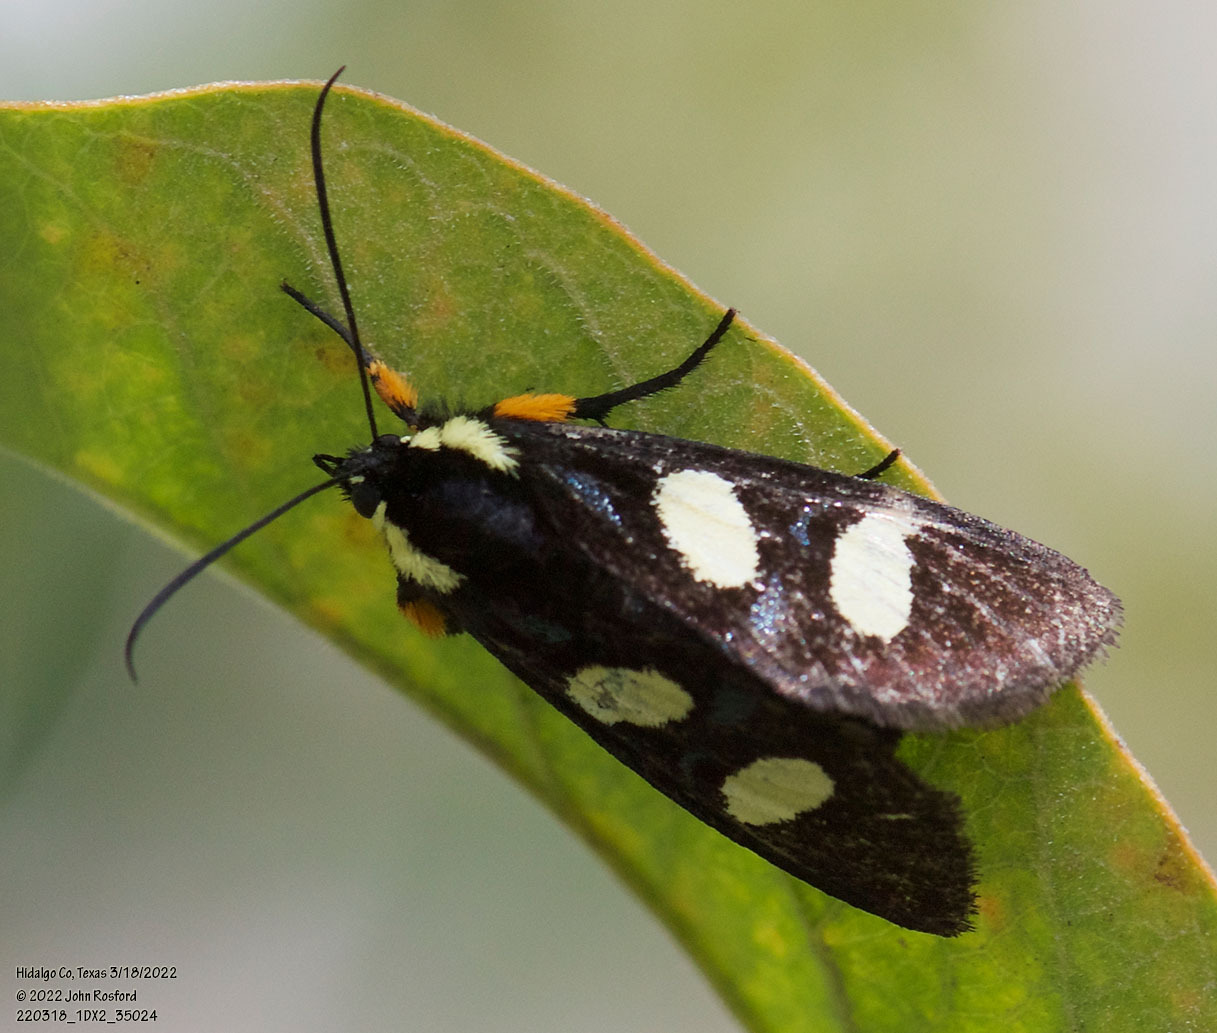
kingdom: Animalia
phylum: Arthropoda
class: Insecta
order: Lepidoptera
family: Noctuidae
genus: Alypia
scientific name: Alypia disparata
